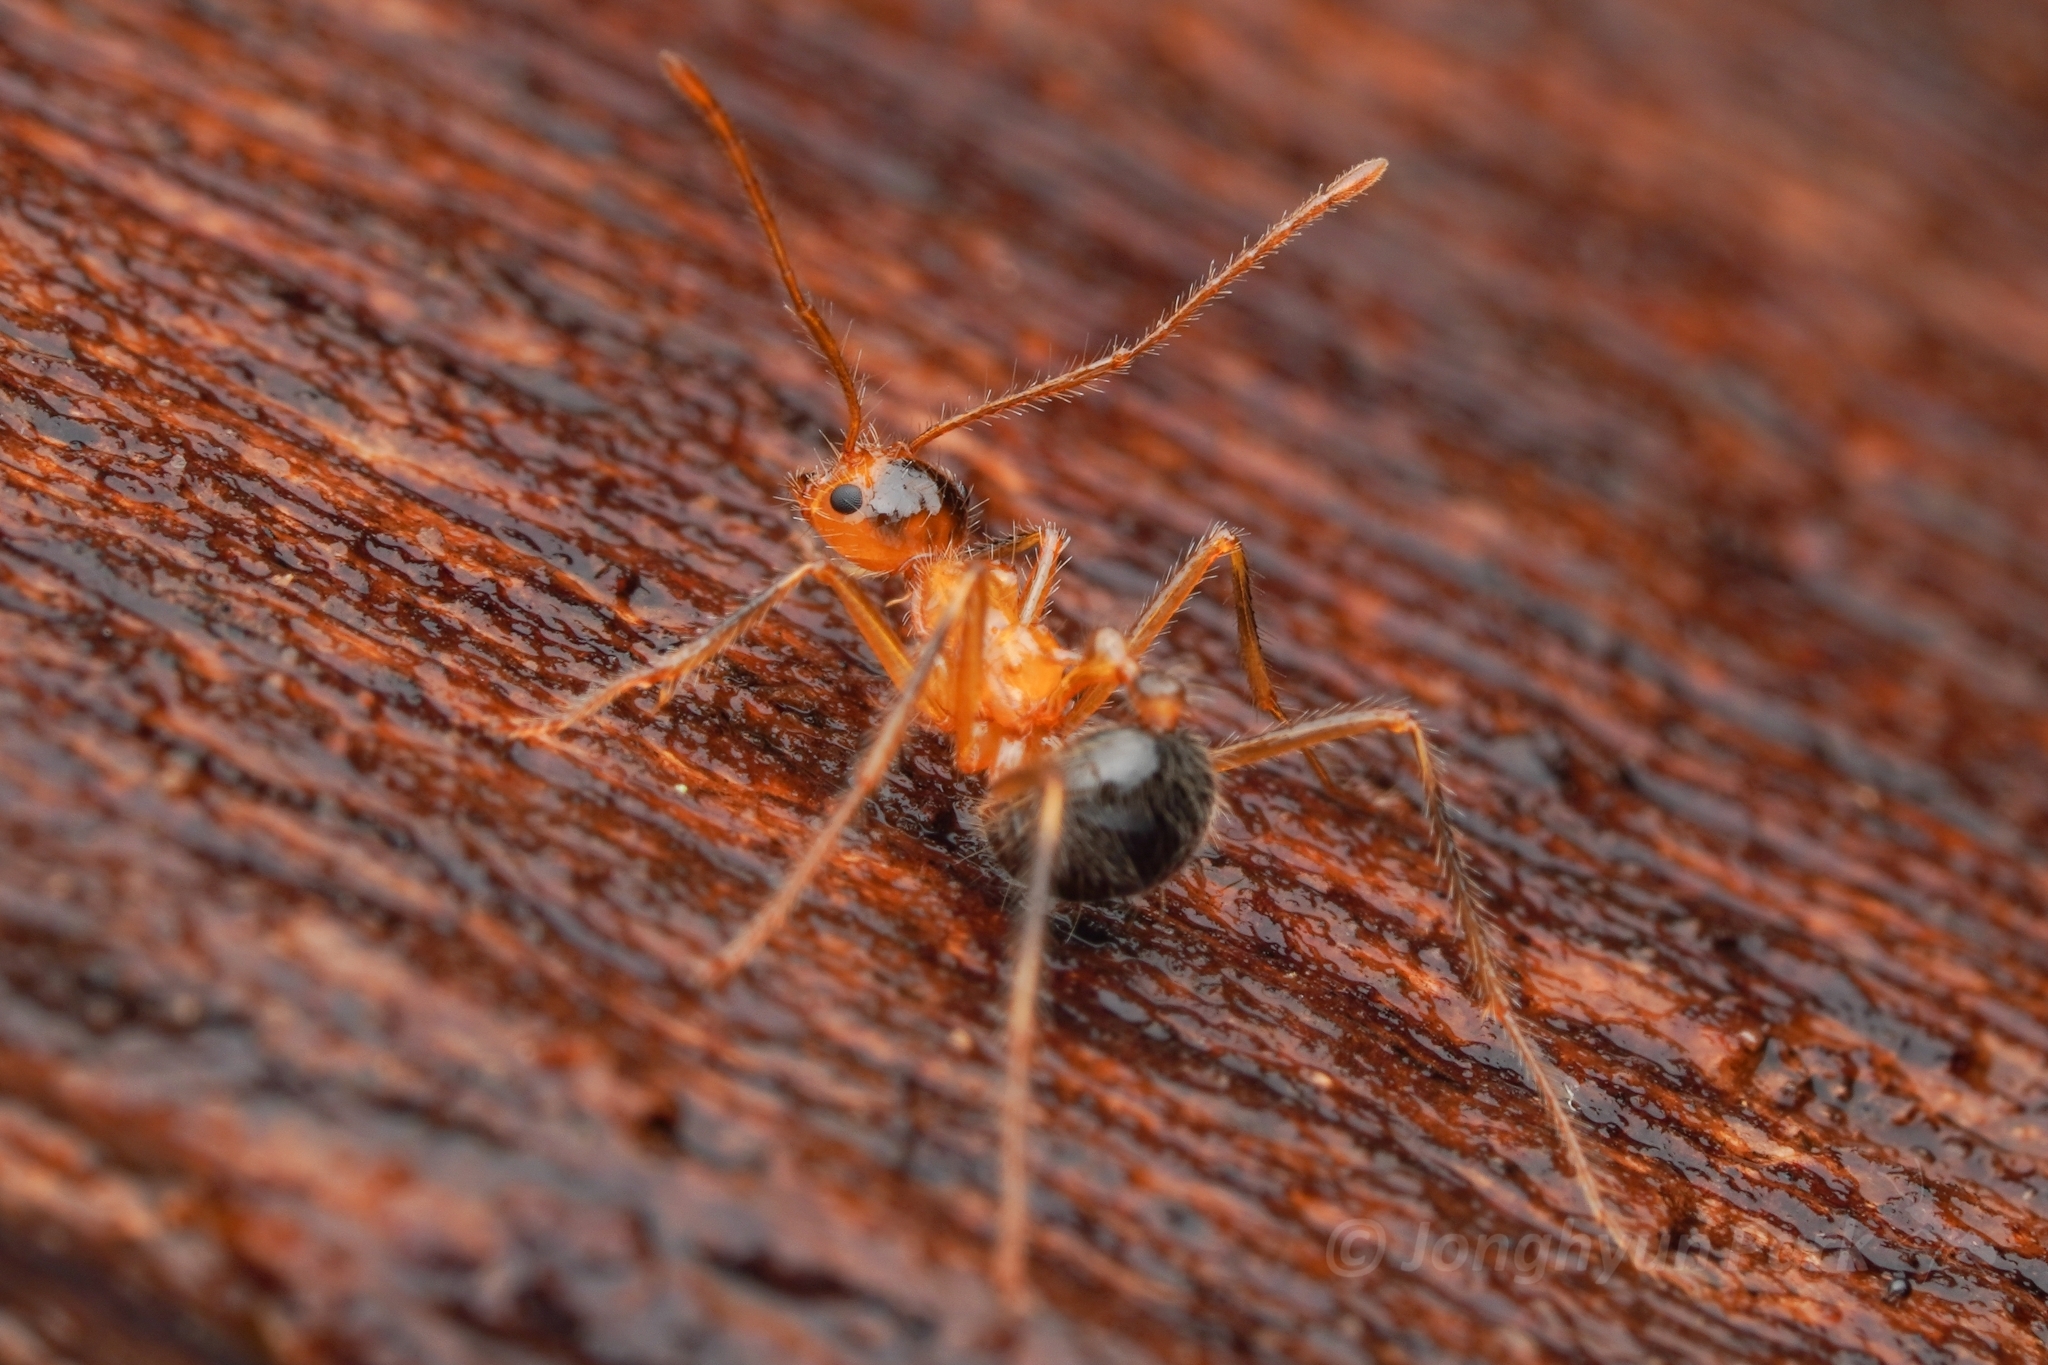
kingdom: Animalia
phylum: Arthropoda
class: Insecta
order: Hymenoptera
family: Formicidae
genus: Myrmicaria
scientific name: Myrmicaria melanogaster
